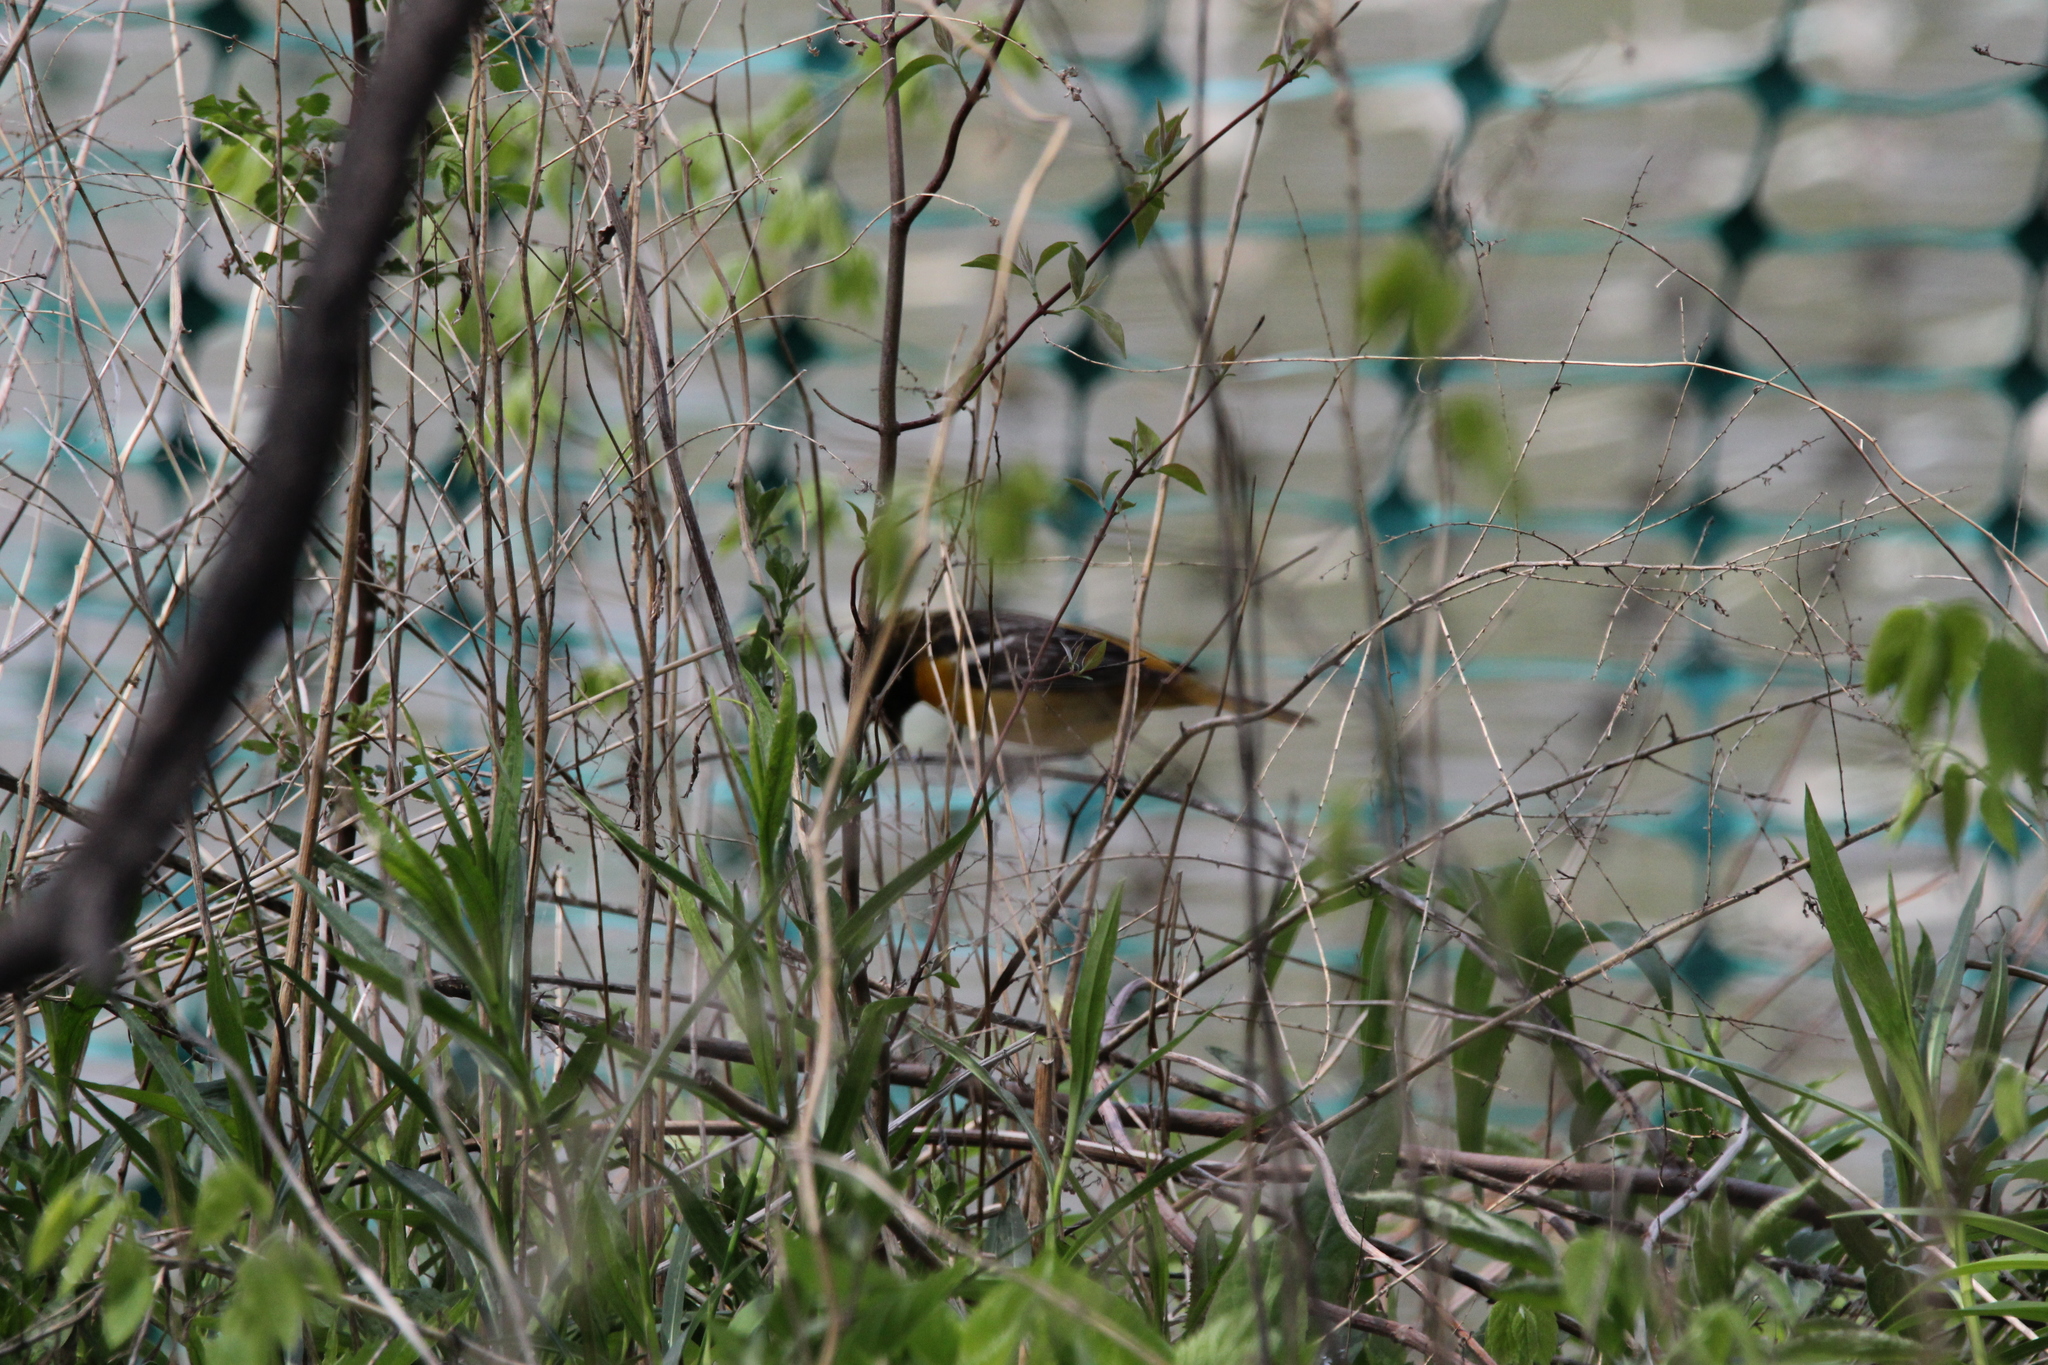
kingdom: Animalia
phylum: Chordata
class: Aves
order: Passeriformes
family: Icteridae
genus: Icterus
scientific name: Icterus galbula
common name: Baltimore oriole
